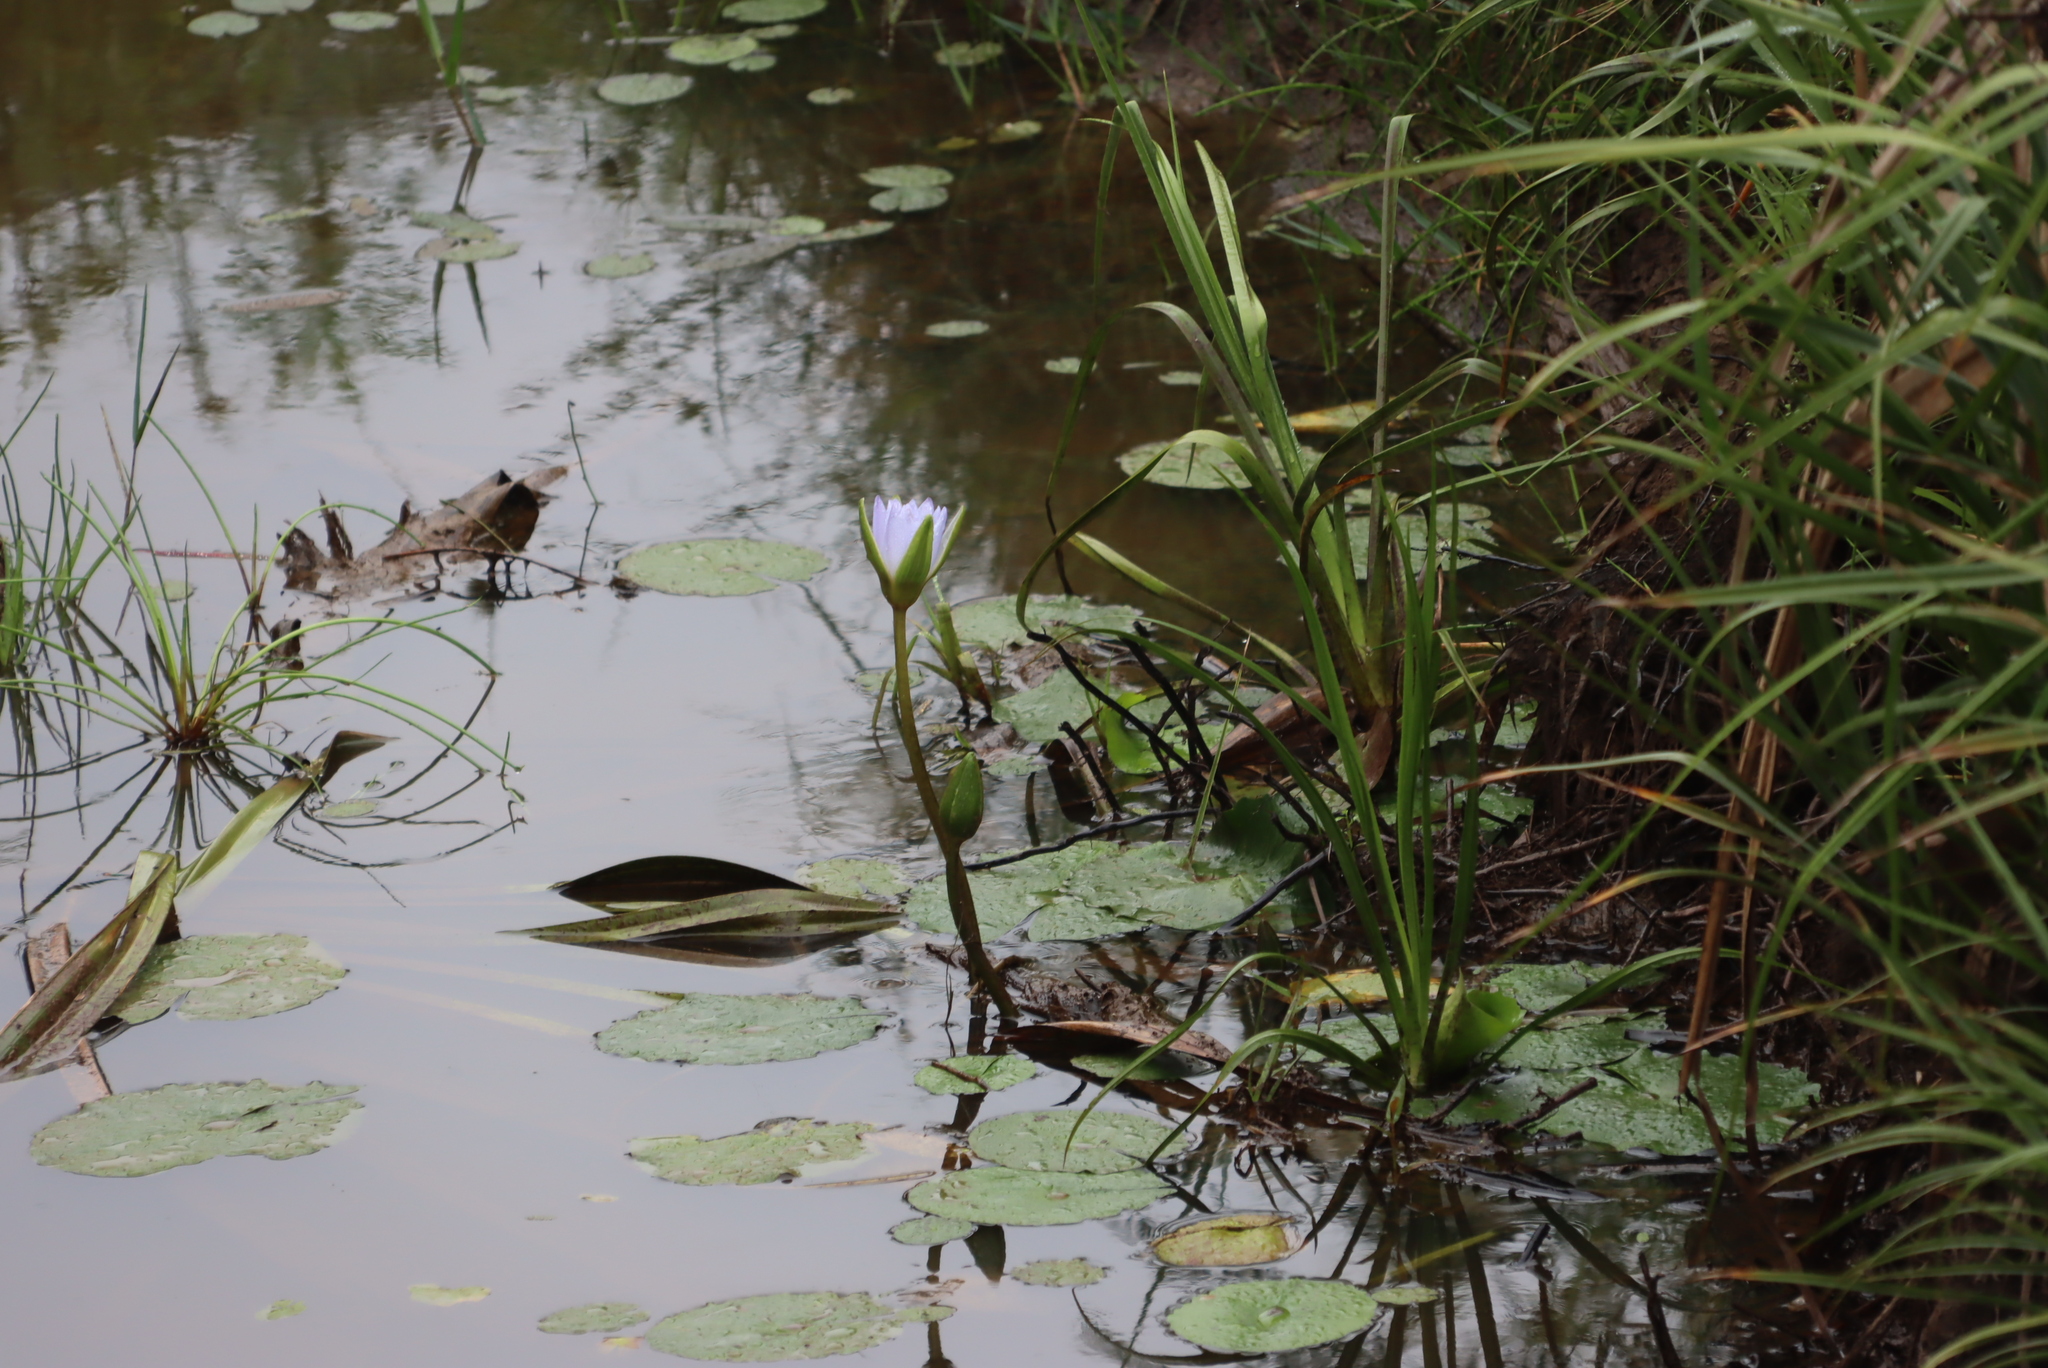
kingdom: Plantae
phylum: Tracheophyta
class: Magnoliopsida
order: Nymphaeales
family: Nymphaeaceae
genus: Nymphaea
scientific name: Nymphaea nouchali
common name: Blue lotus
